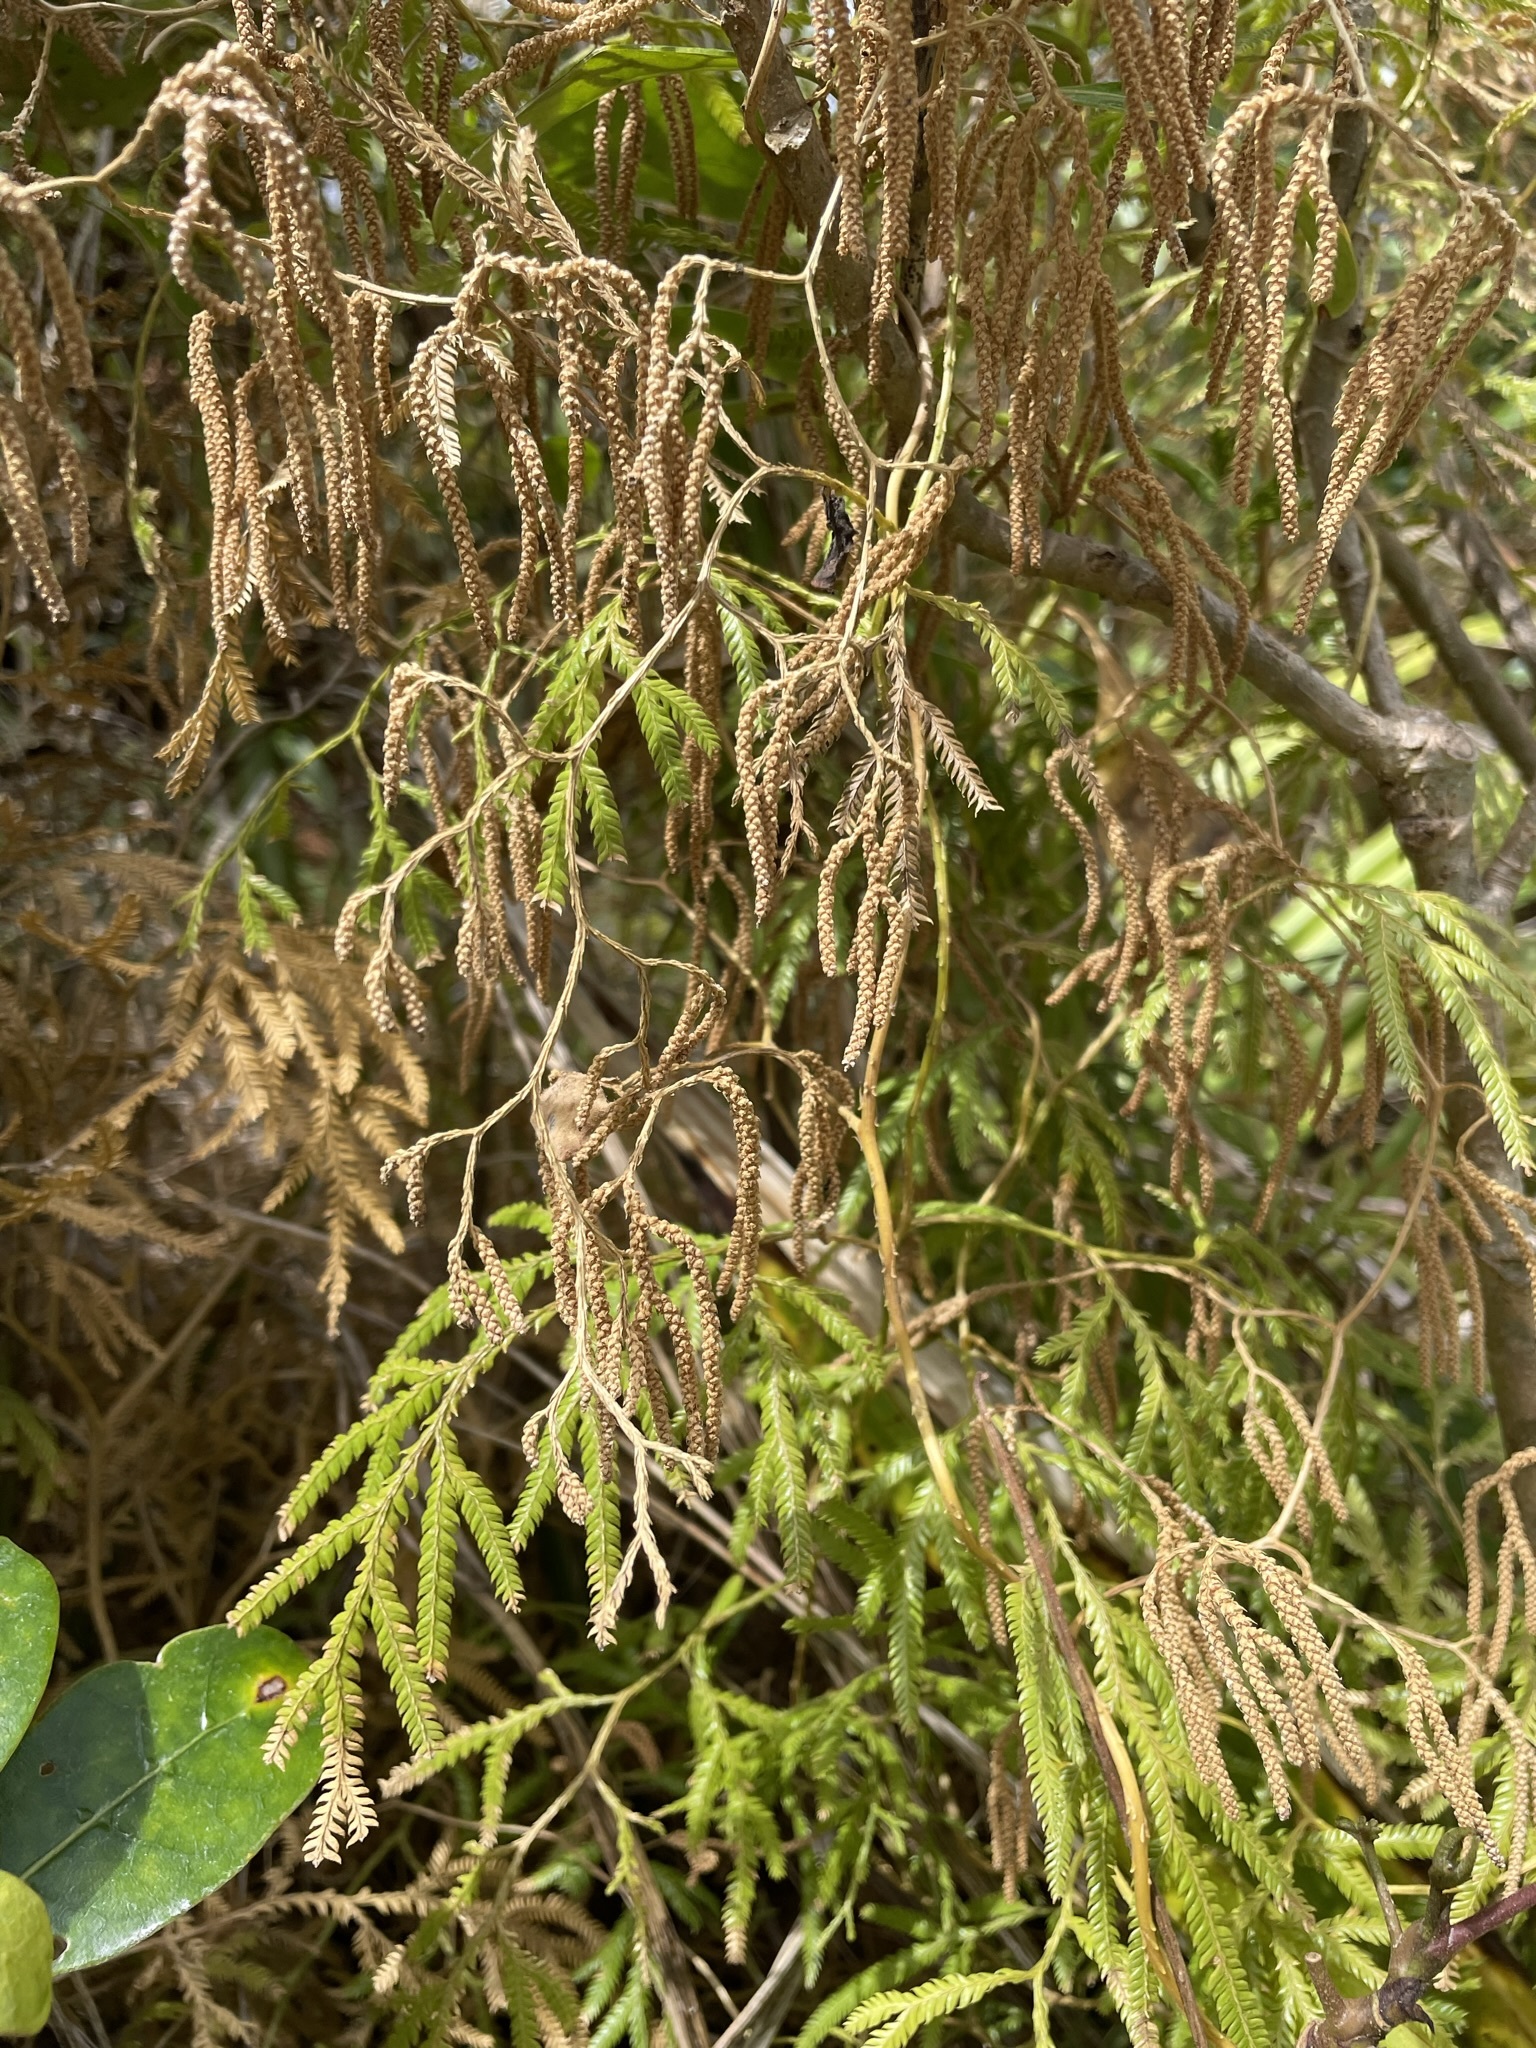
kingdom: Plantae
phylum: Tracheophyta
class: Lycopodiopsida
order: Lycopodiales
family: Lycopodiaceae
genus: Lycopodium
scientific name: Lycopodium volubile
